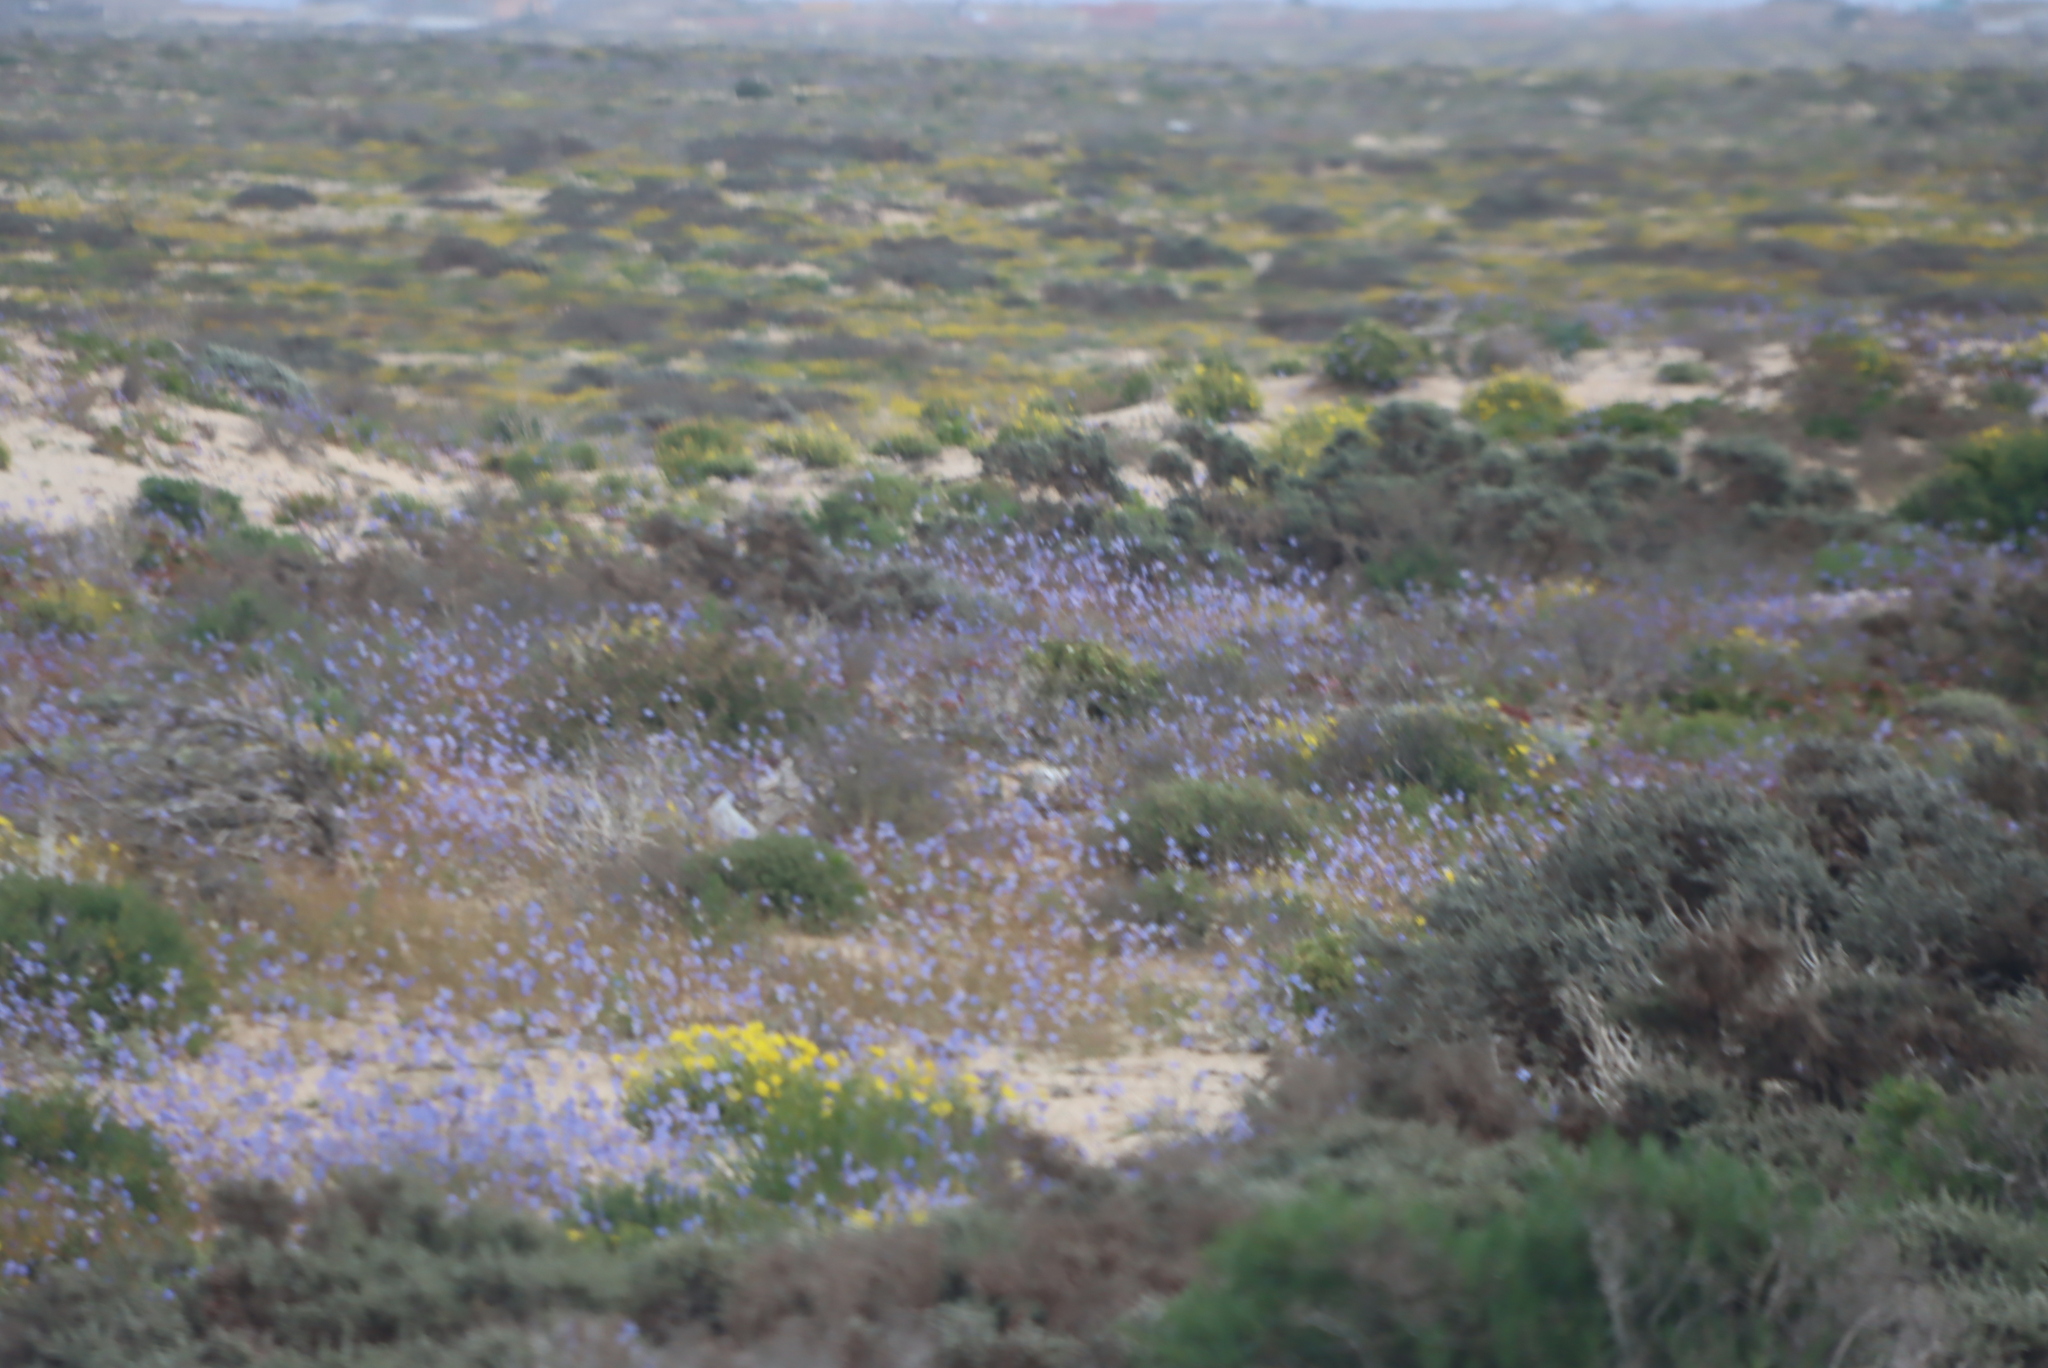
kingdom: Plantae
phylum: Tracheophyta
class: Magnoliopsida
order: Brassicales
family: Brassicaceae
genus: Heliophila
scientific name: Heliophila lactea
